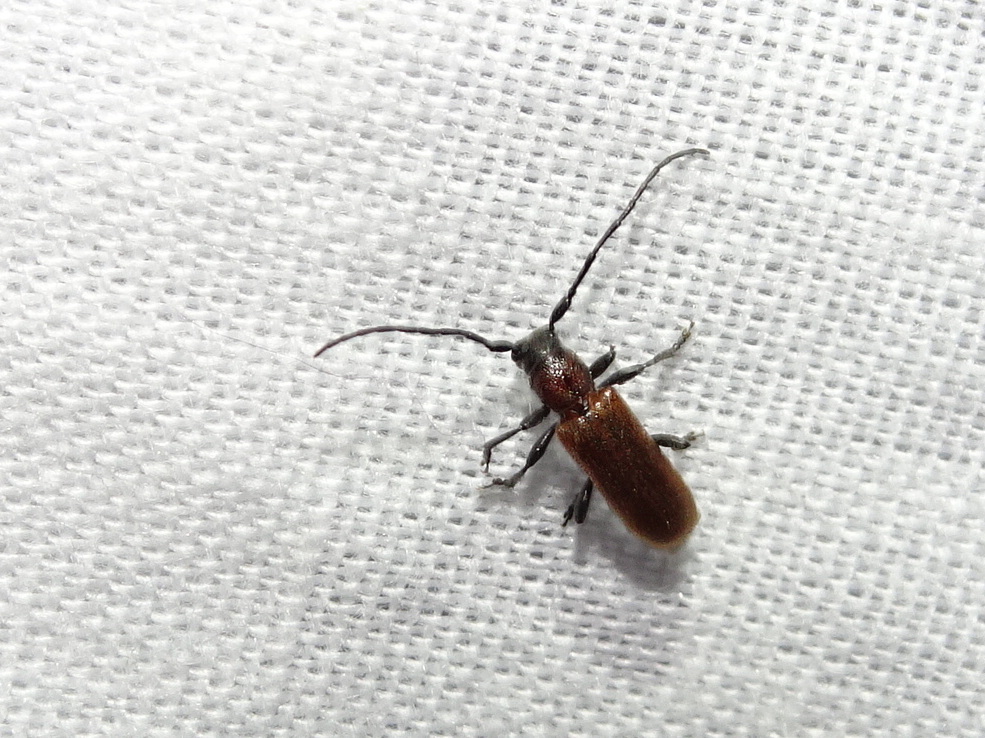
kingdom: Animalia
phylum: Arthropoda
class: Insecta
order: Coleoptera
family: Cerambycidae
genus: Anaesthetis
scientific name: Anaesthetis testacea
